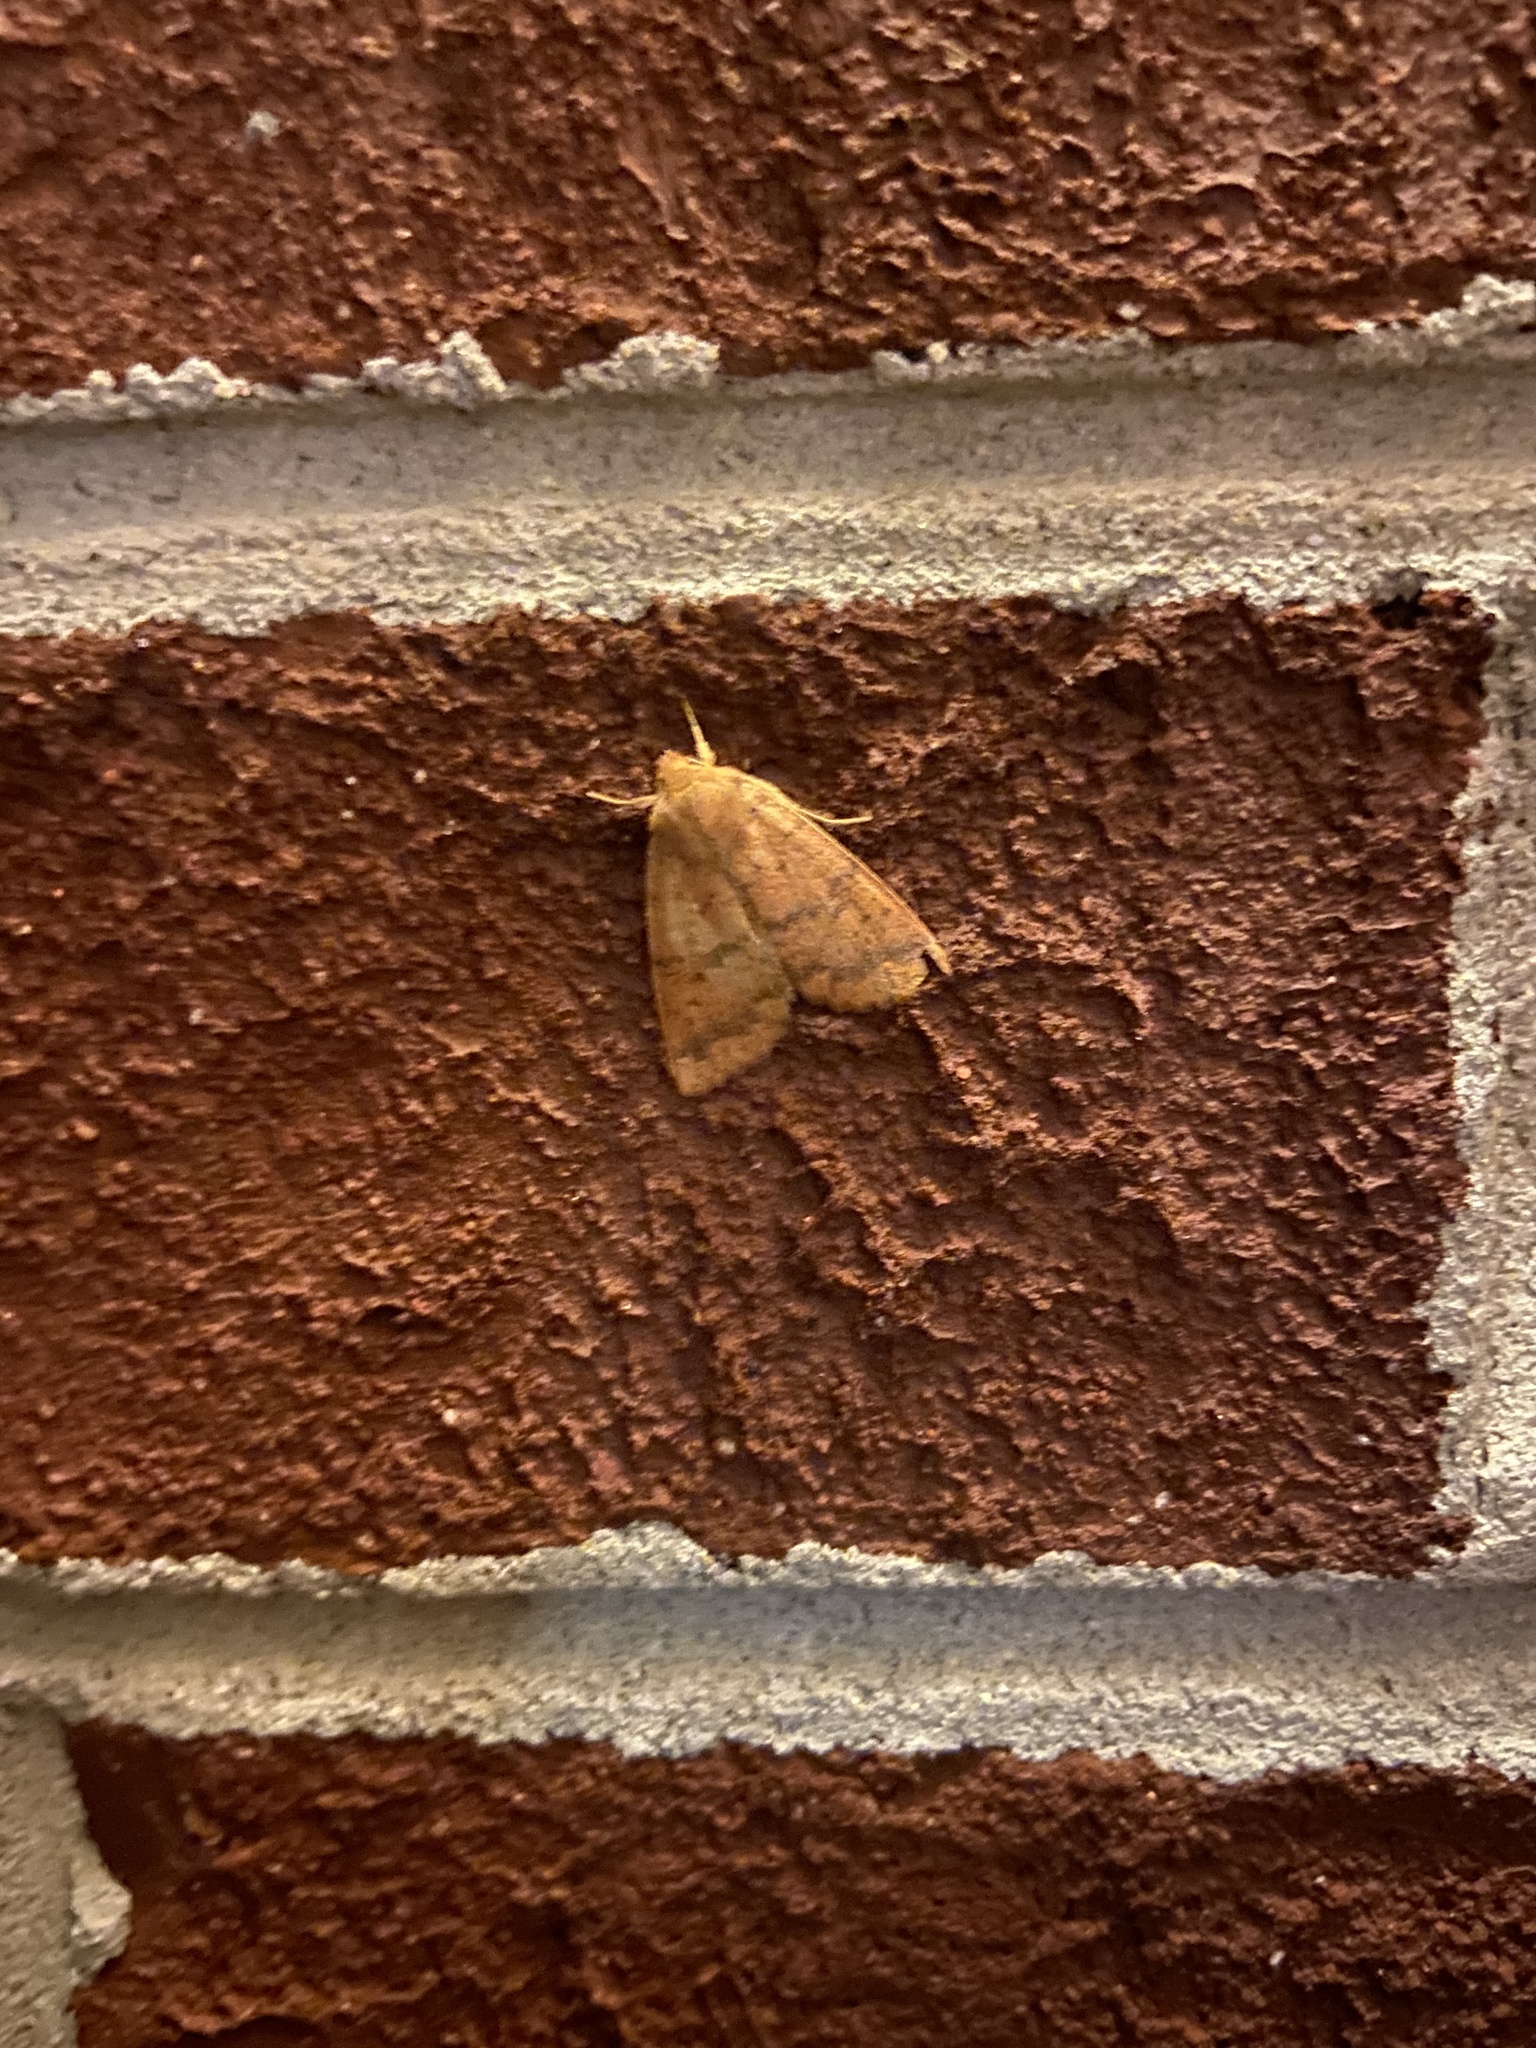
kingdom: Animalia
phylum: Arthropoda
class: Insecta
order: Lepidoptera
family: Noctuidae
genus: Agrochola
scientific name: Agrochola bicolorago
